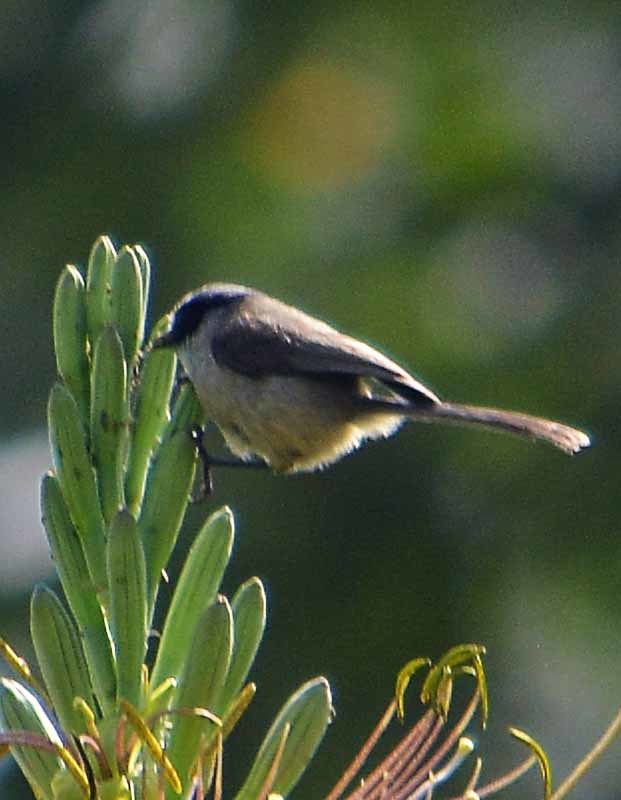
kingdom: Animalia
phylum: Chordata
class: Aves
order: Passeriformes
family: Aegithalidae
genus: Psaltriparus
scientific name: Psaltriparus minimus
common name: American bushtit
